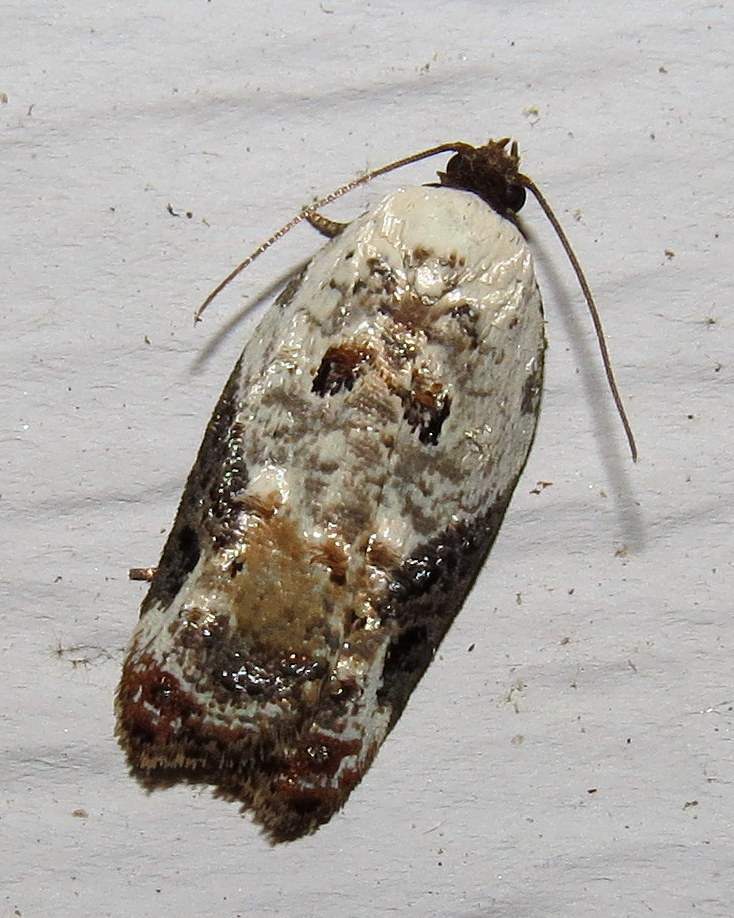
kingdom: Animalia
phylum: Arthropoda
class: Insecta
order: Lepidoptera
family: Tortricidae
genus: Acleris
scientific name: Acleris nivisellana
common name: Snowy-shouldered acleris moth
